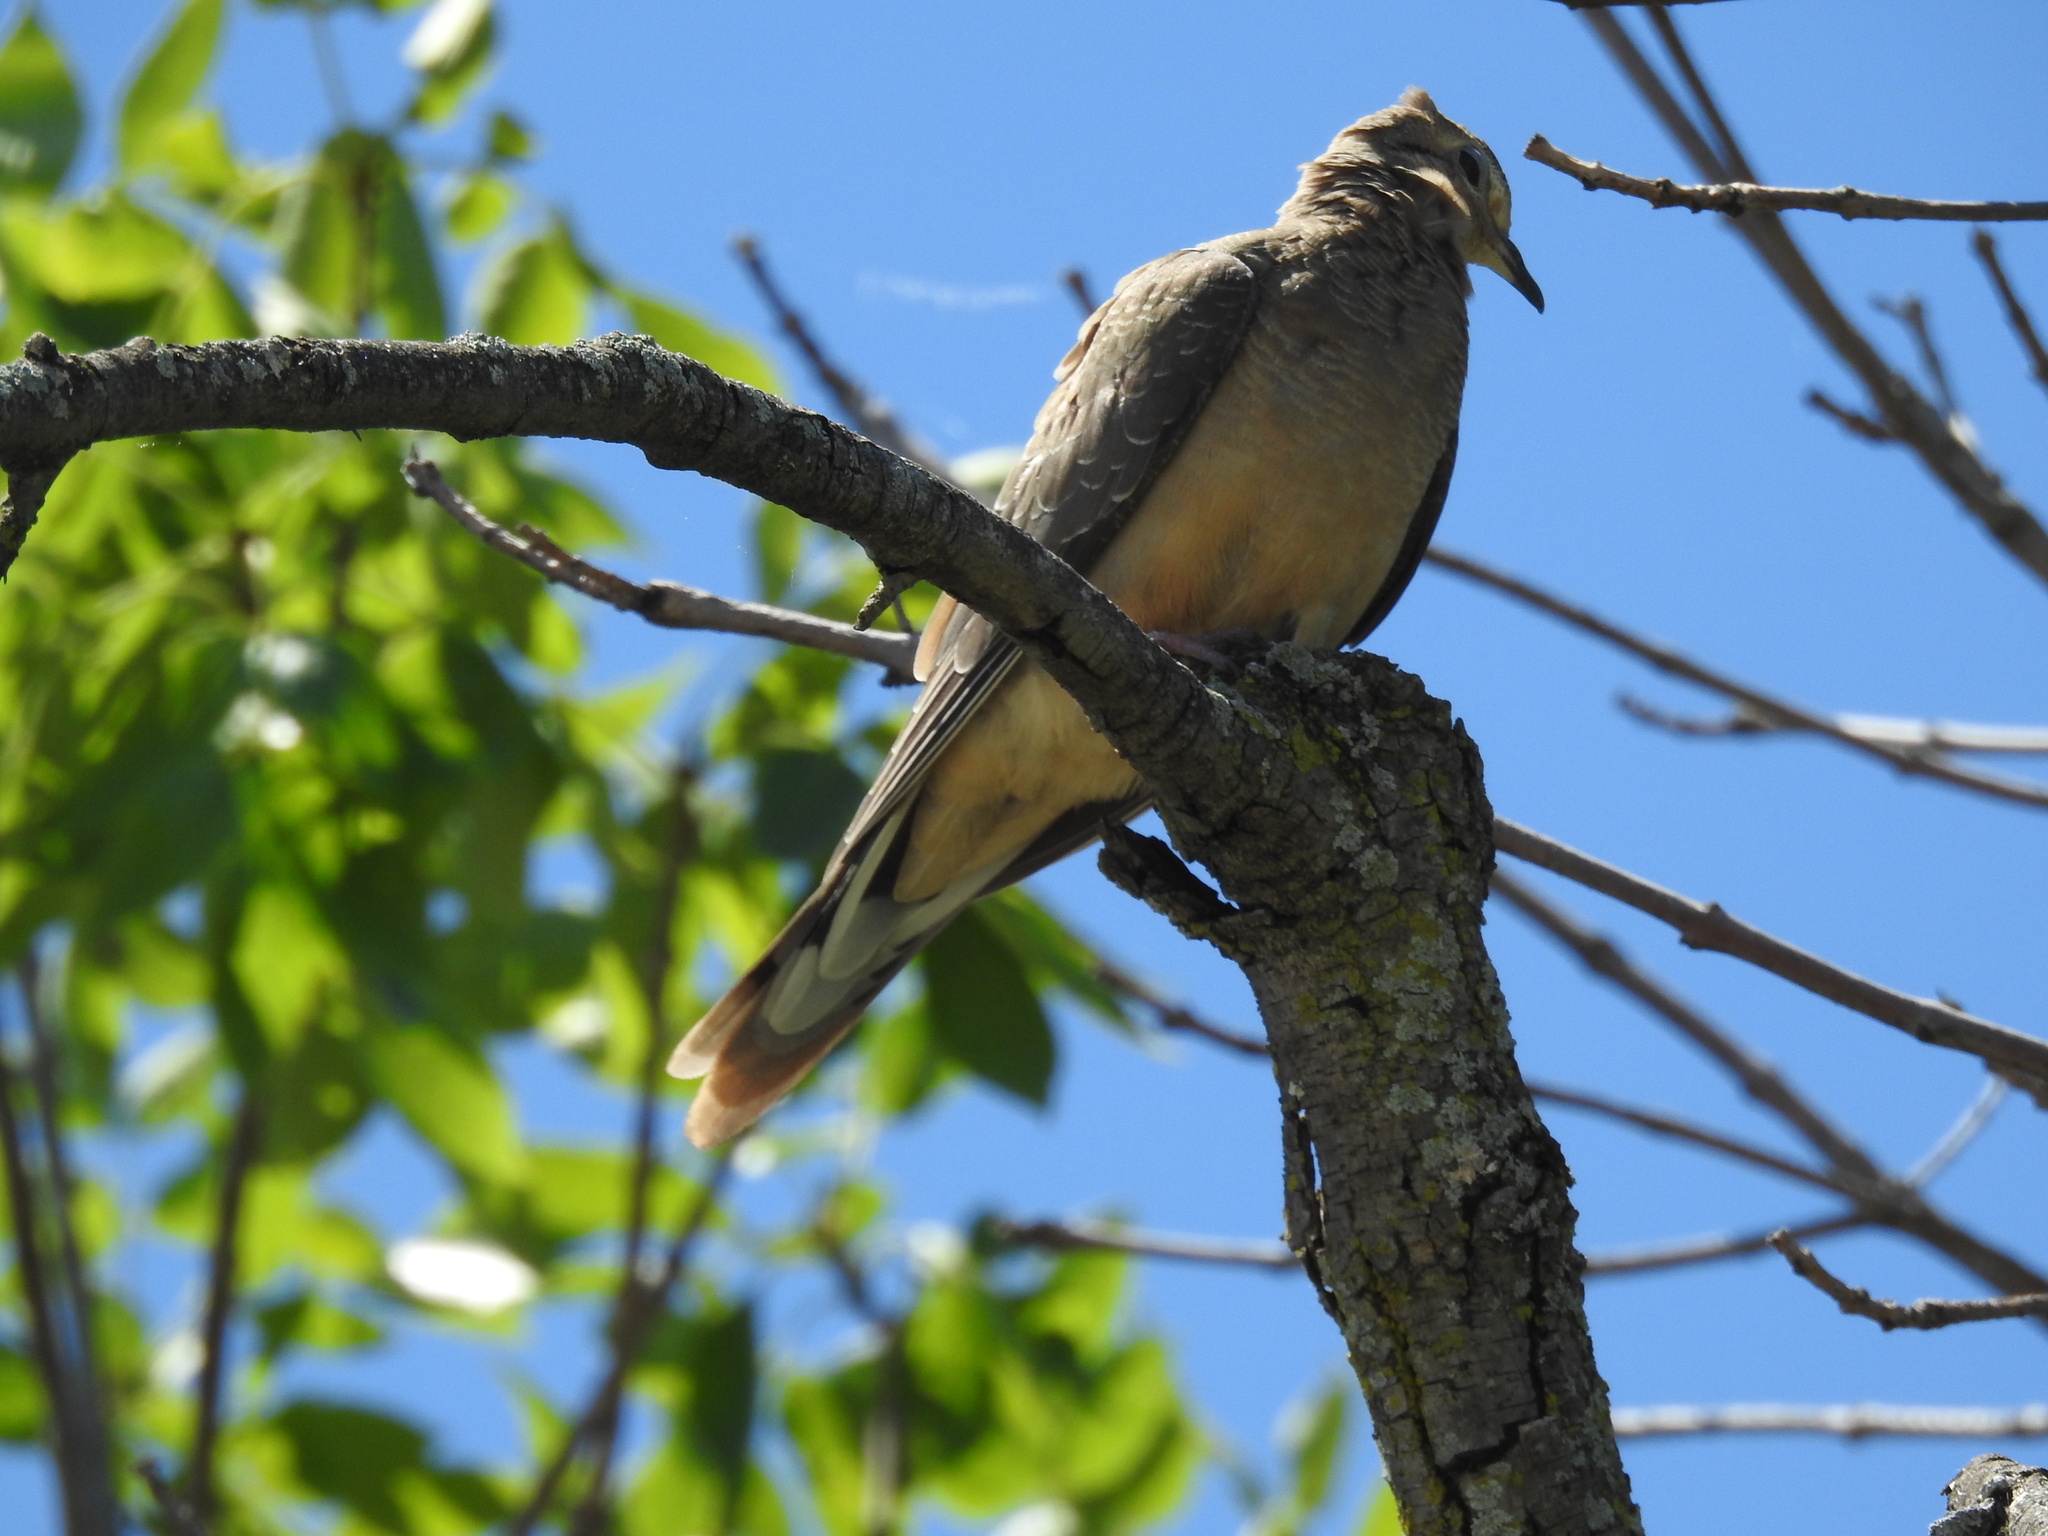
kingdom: Animalia
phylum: Chordata
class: Aves
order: Columbiformes
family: Columbidae
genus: Zenaida
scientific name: Zenaida macroura
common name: Mourning dove
